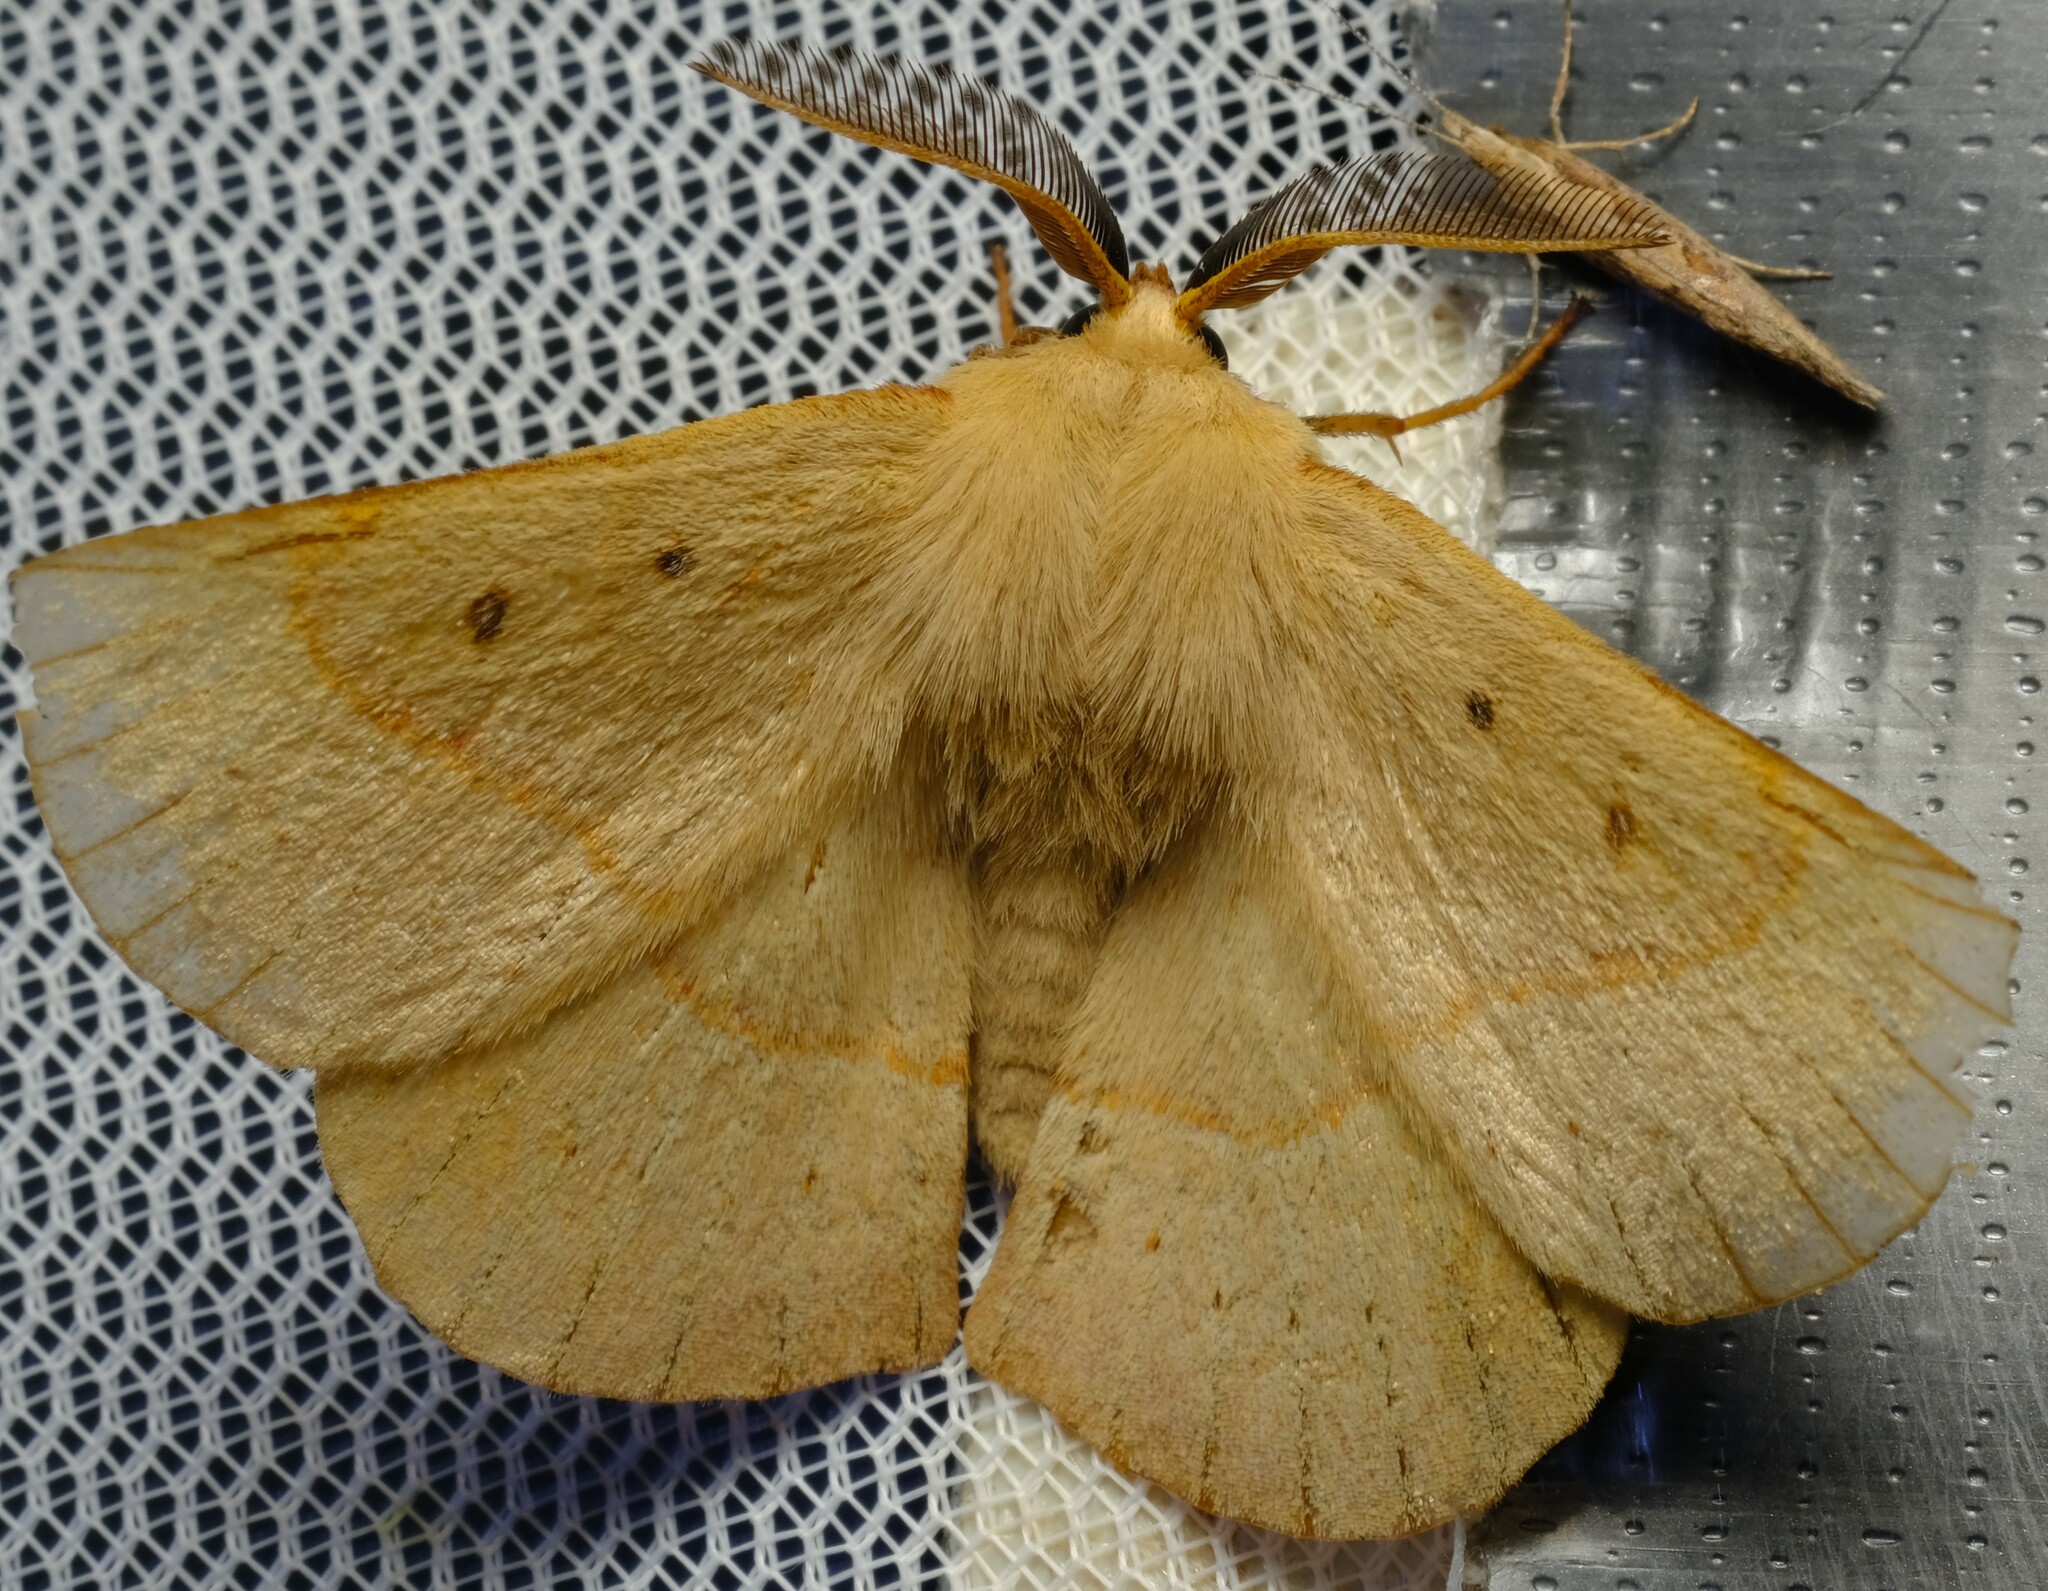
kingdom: Animalia
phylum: Arthropoda
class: Insecta
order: Lepidoptera
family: Anthelidae
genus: Anthela
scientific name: Anthela acuta
